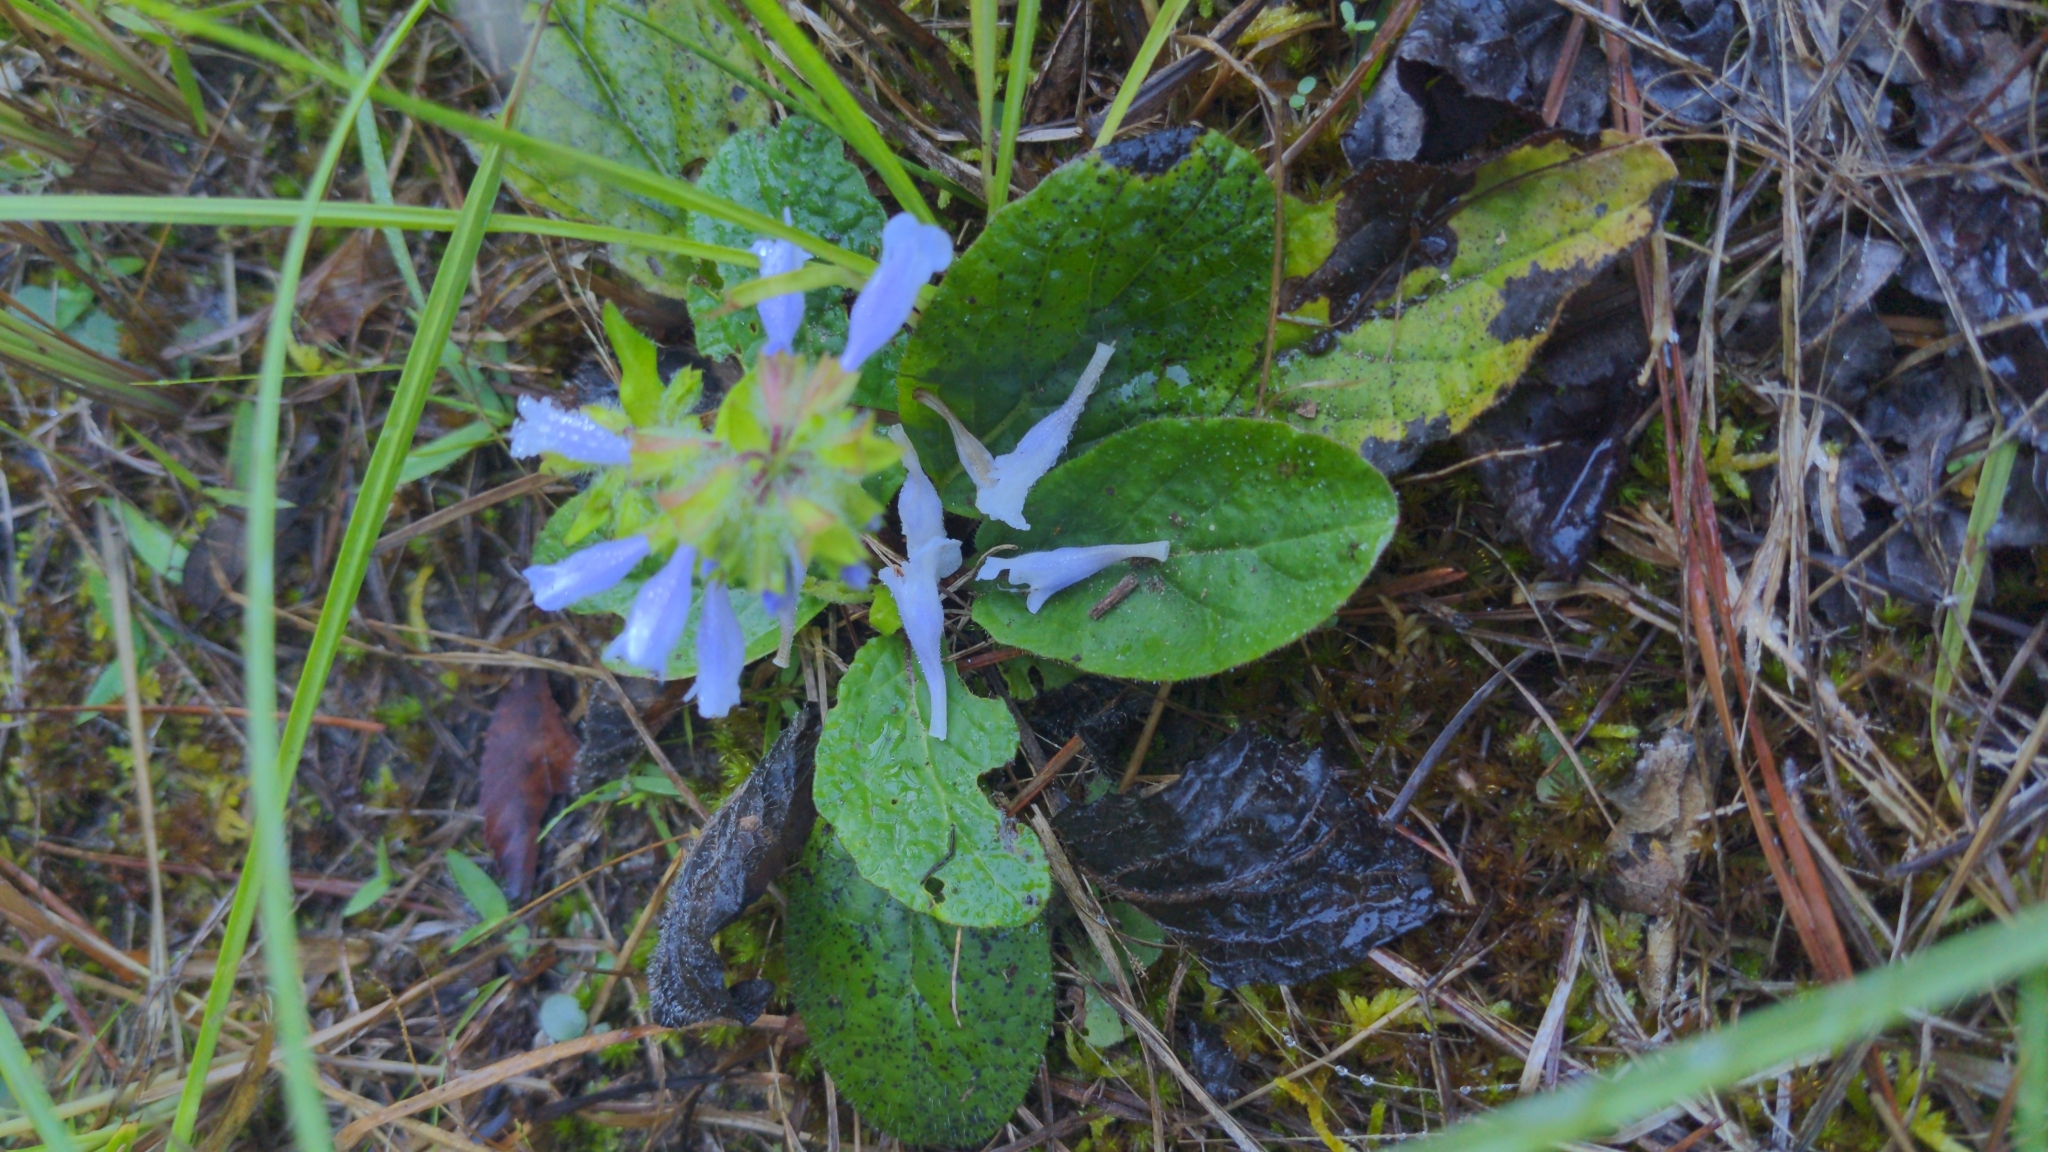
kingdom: Plantae
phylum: Tracheophyta
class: Magnoliopsida
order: Lamiales
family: Lamiaceae
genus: Salvia
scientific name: Salvia lyrata
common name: Cancerweed
